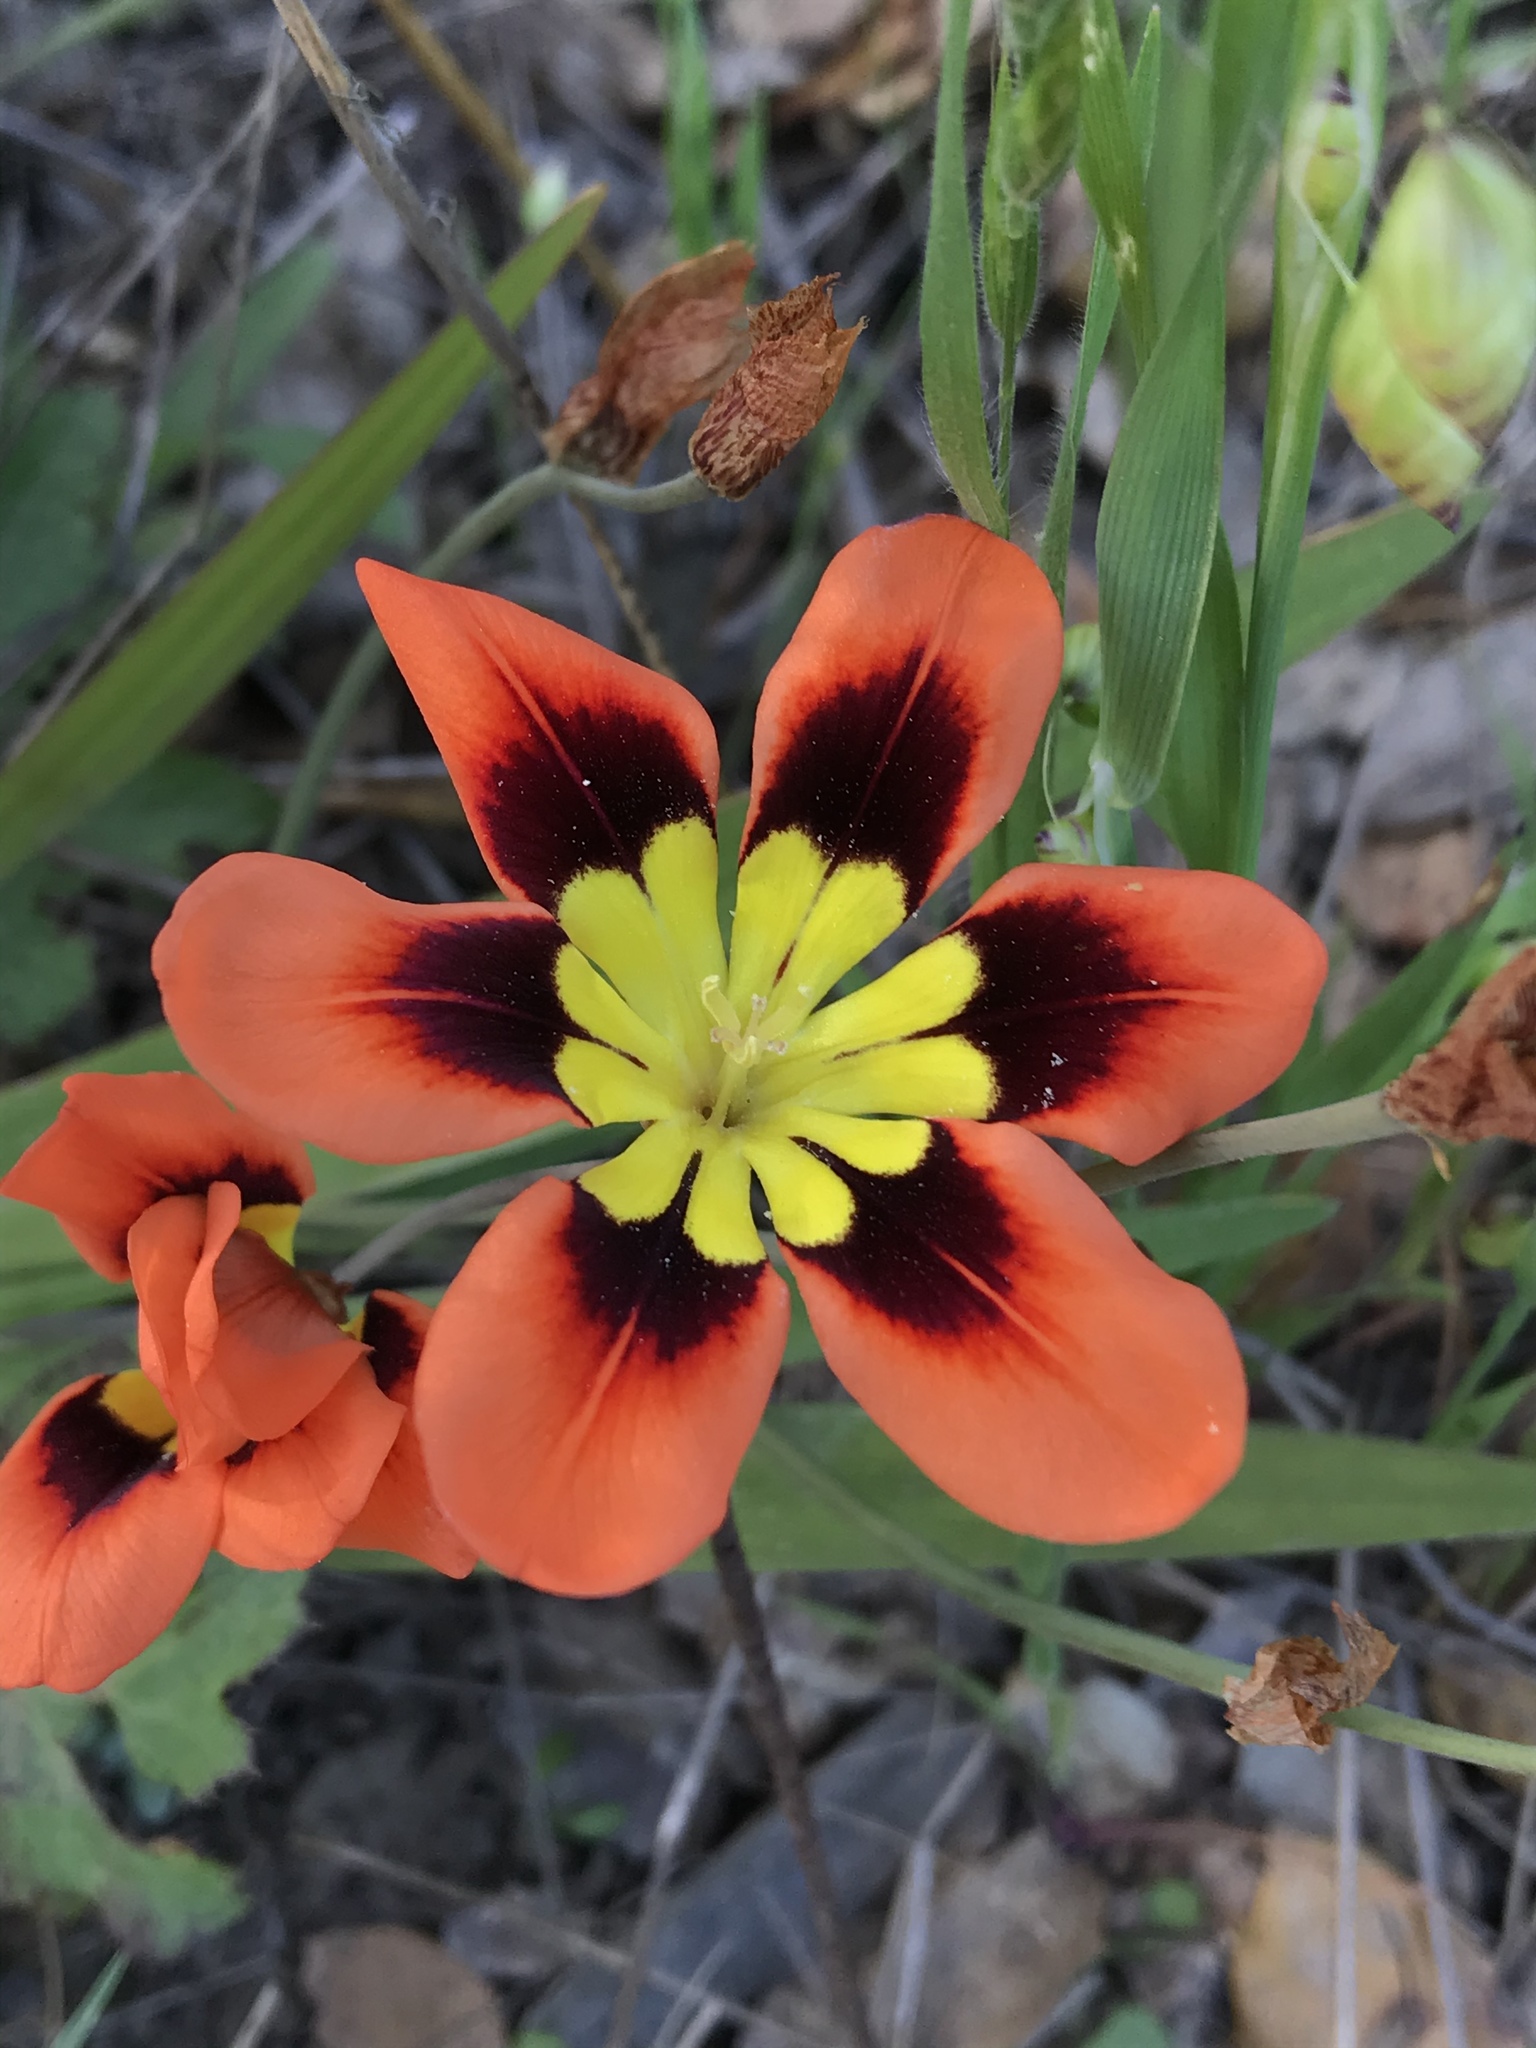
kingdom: Plantae
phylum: Tracheophyta
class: Liliopsida
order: Asparagales
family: Iridaceae
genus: Sparaxis
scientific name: Sparaxis tricolor
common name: Wandflower
